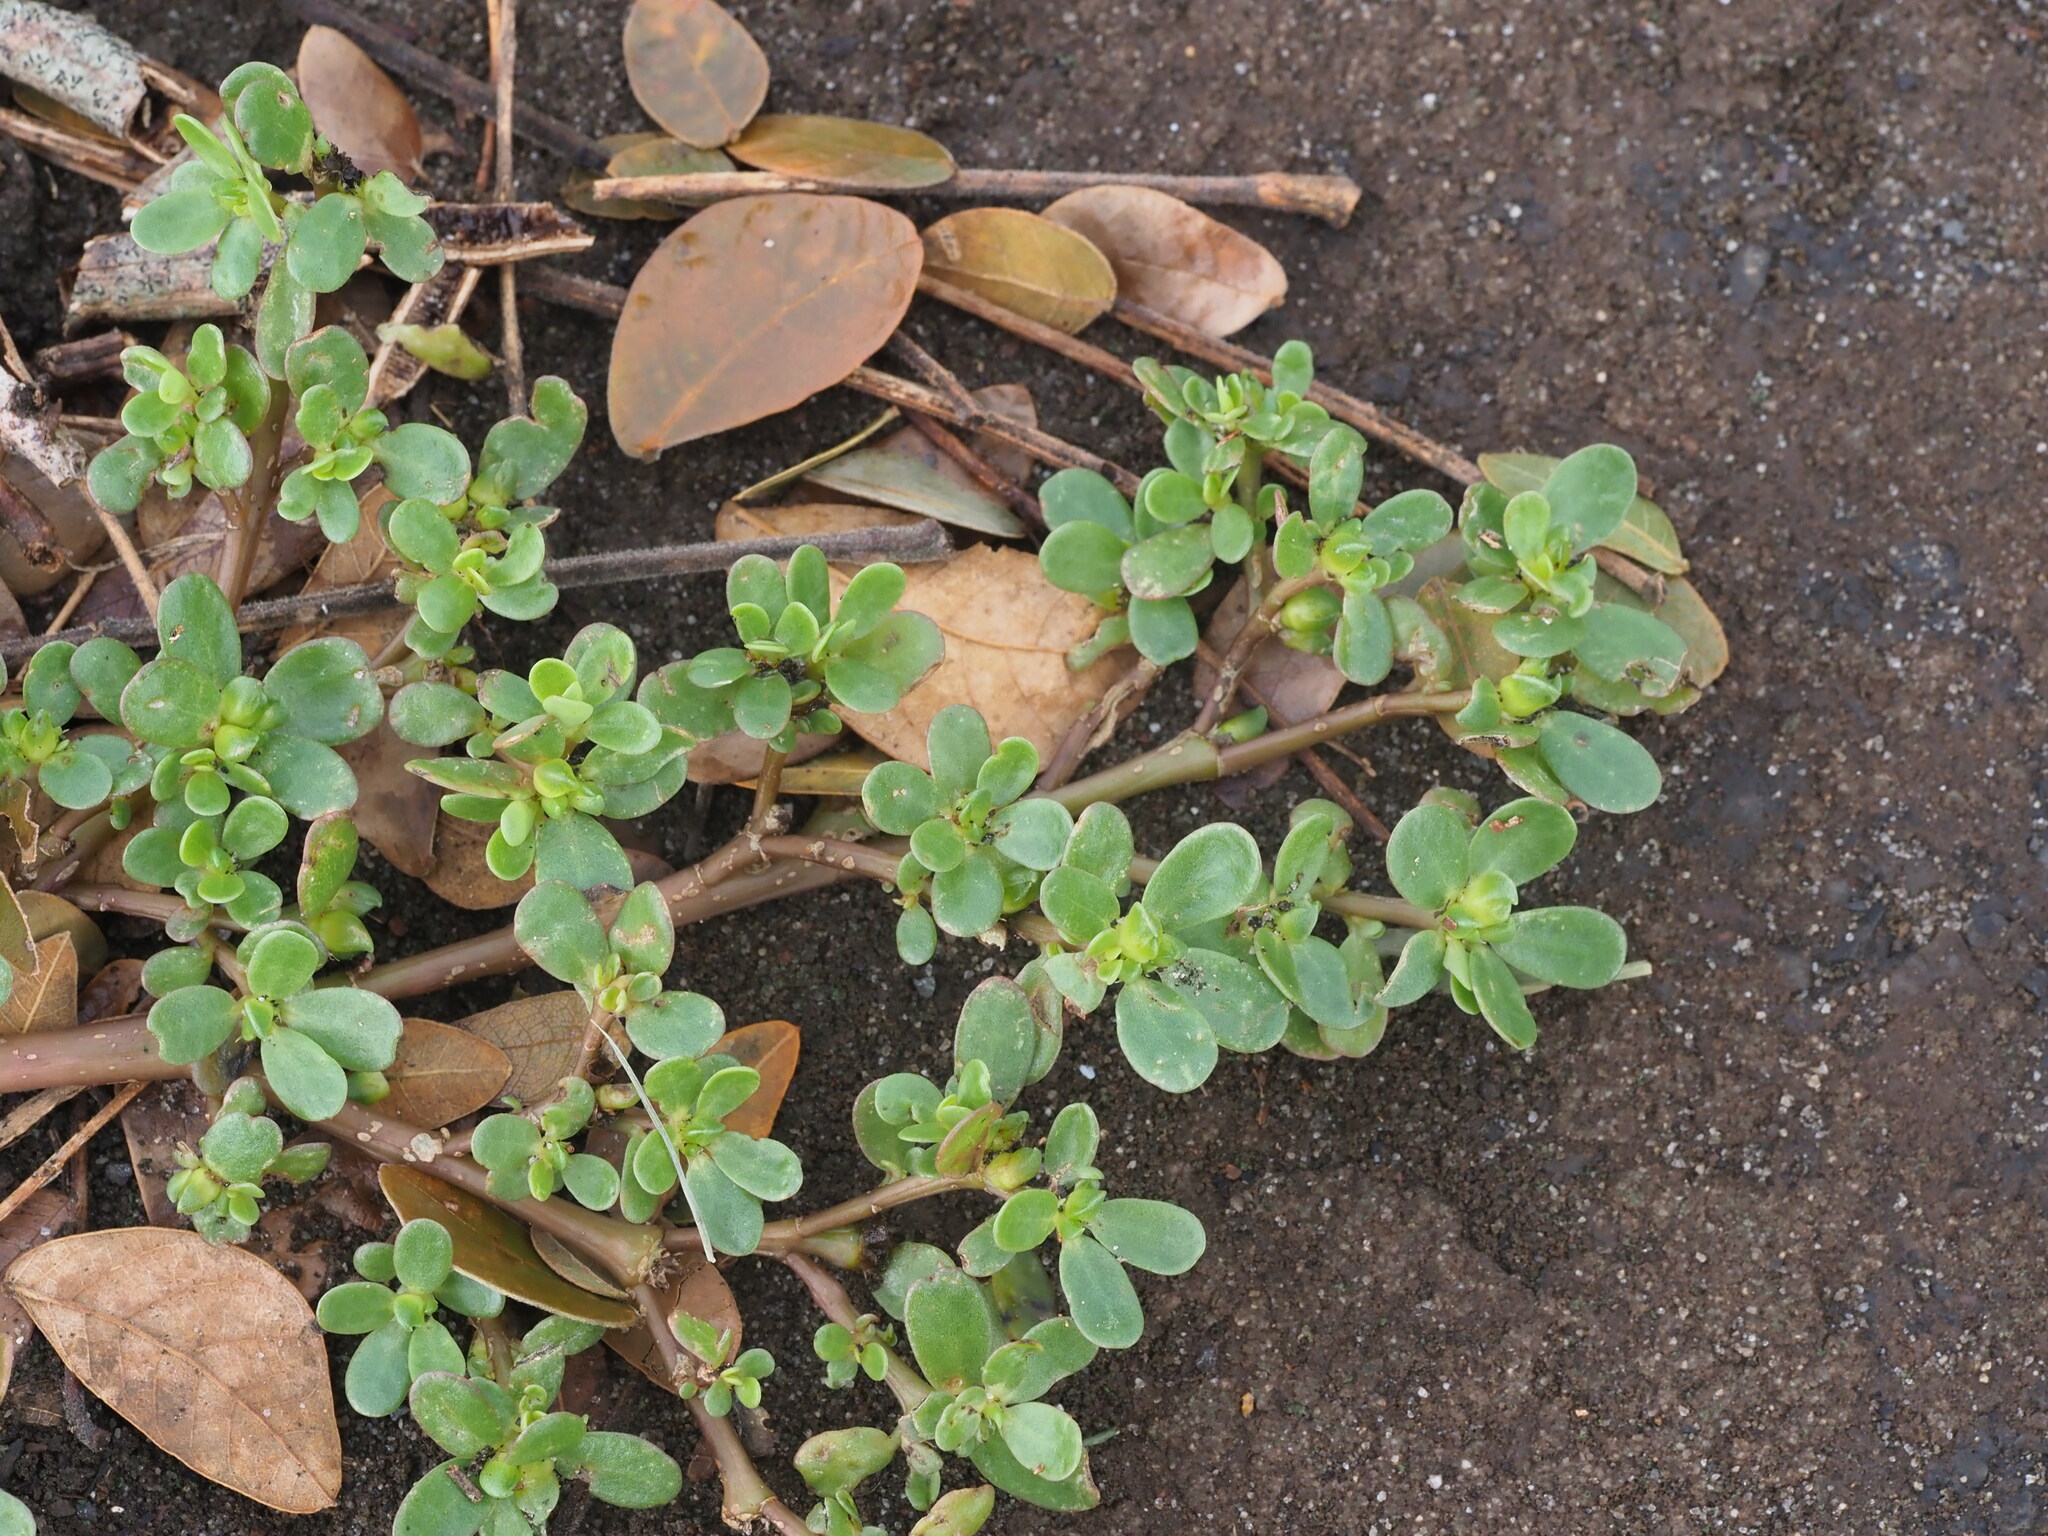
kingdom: Plantae
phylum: Tracheophyta
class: Magnoliopsida
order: Caryophyllales
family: Portulacaceae
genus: Portulaca
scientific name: Portulaca oleracea
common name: Common purslane
